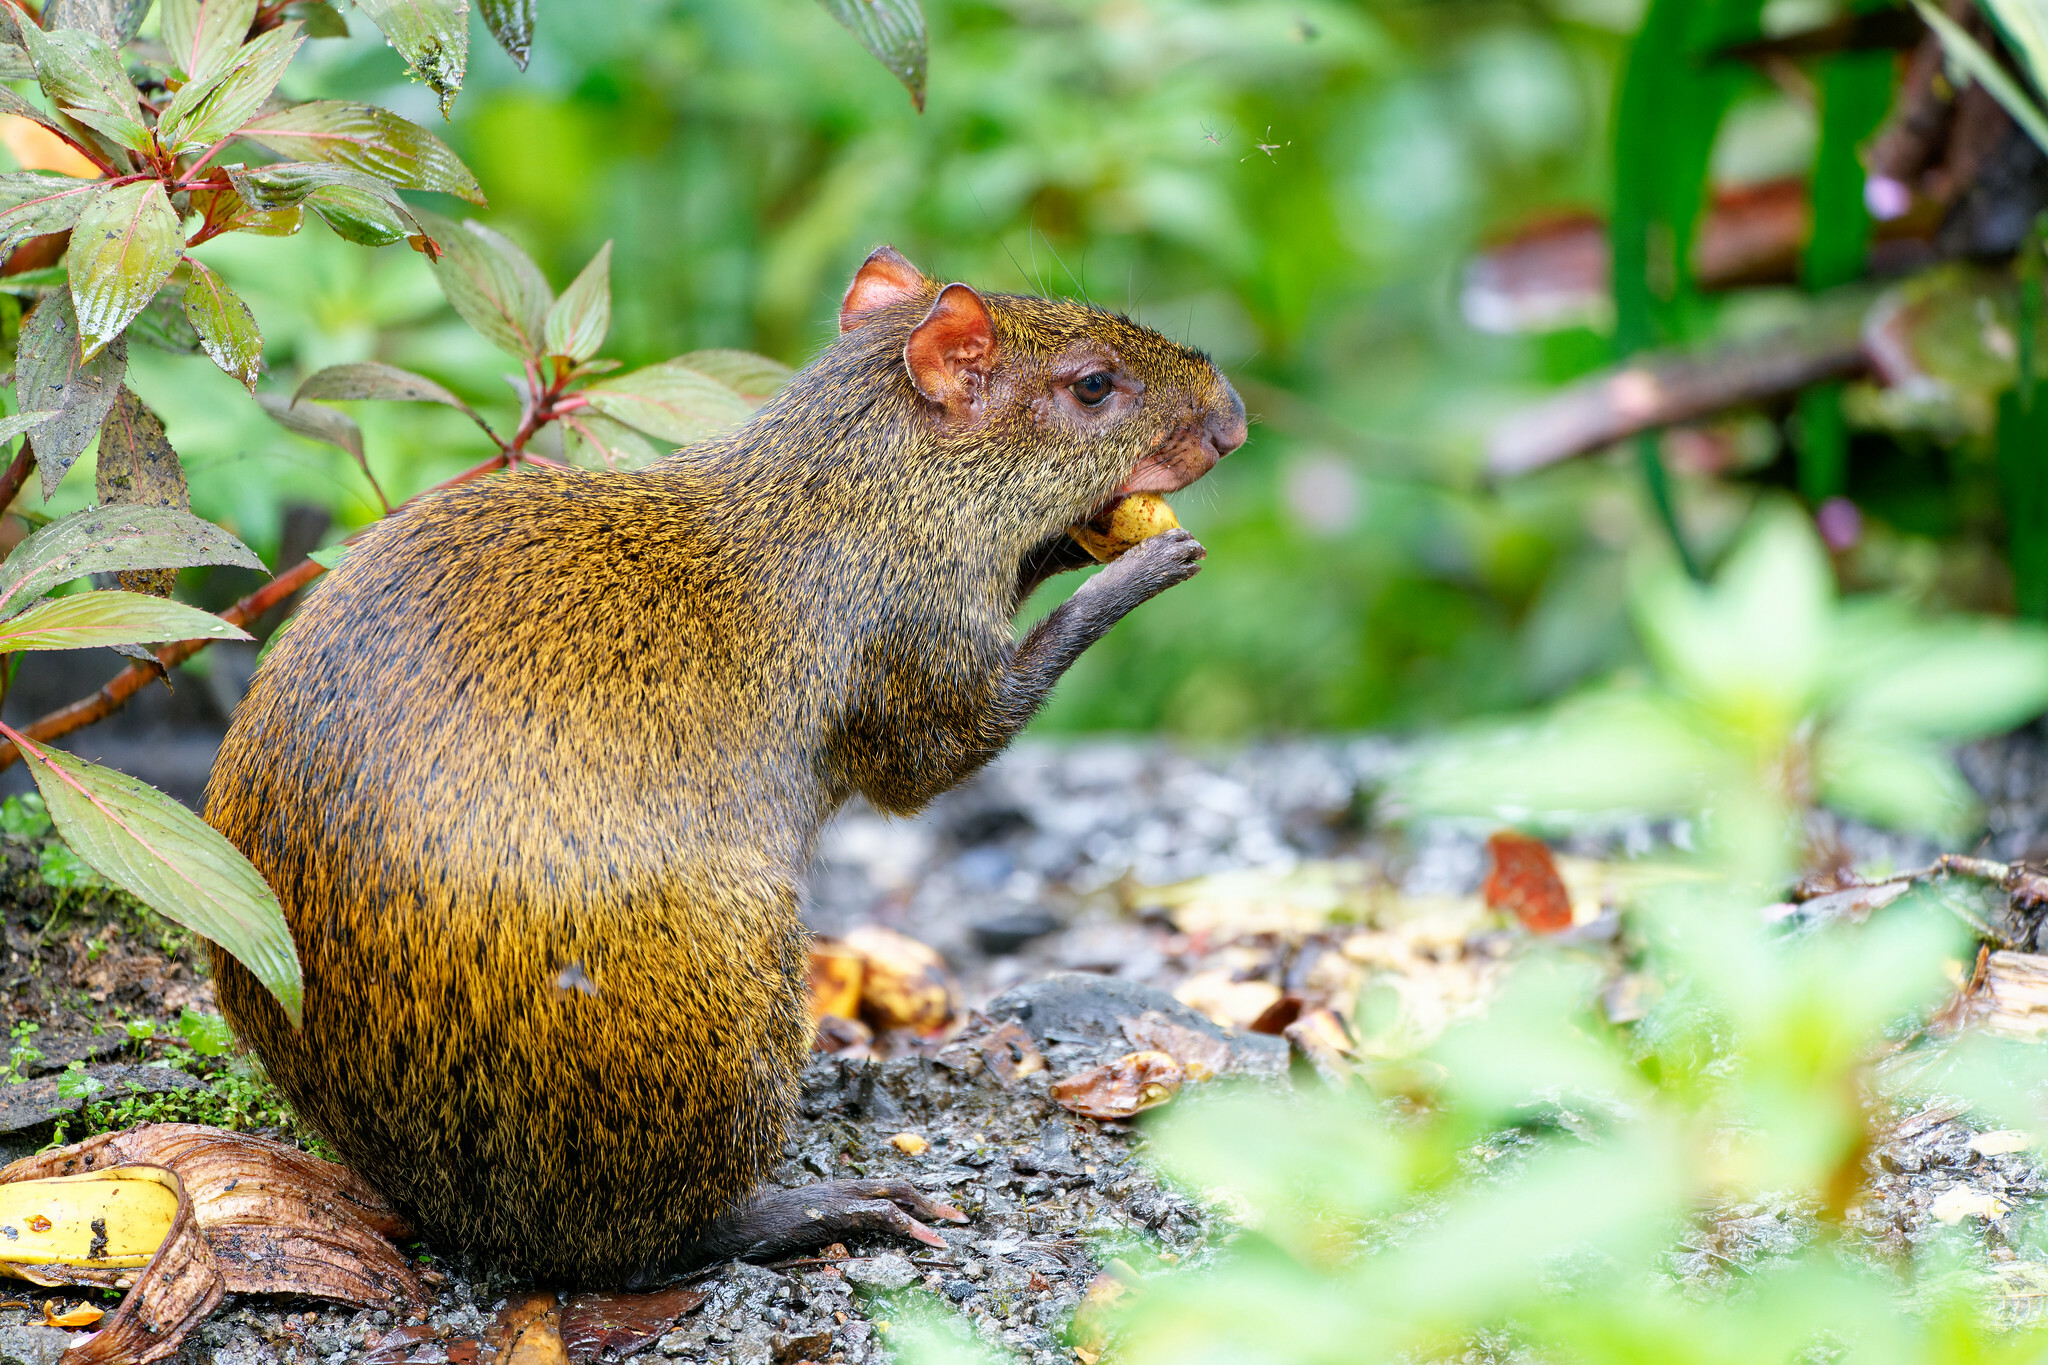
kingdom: Animalia
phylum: Chordata
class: Mammalia
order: Rodentia
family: Dasyproctidae
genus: Dasyprocta
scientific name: Dasyprocta punctata
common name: Central american agouti
